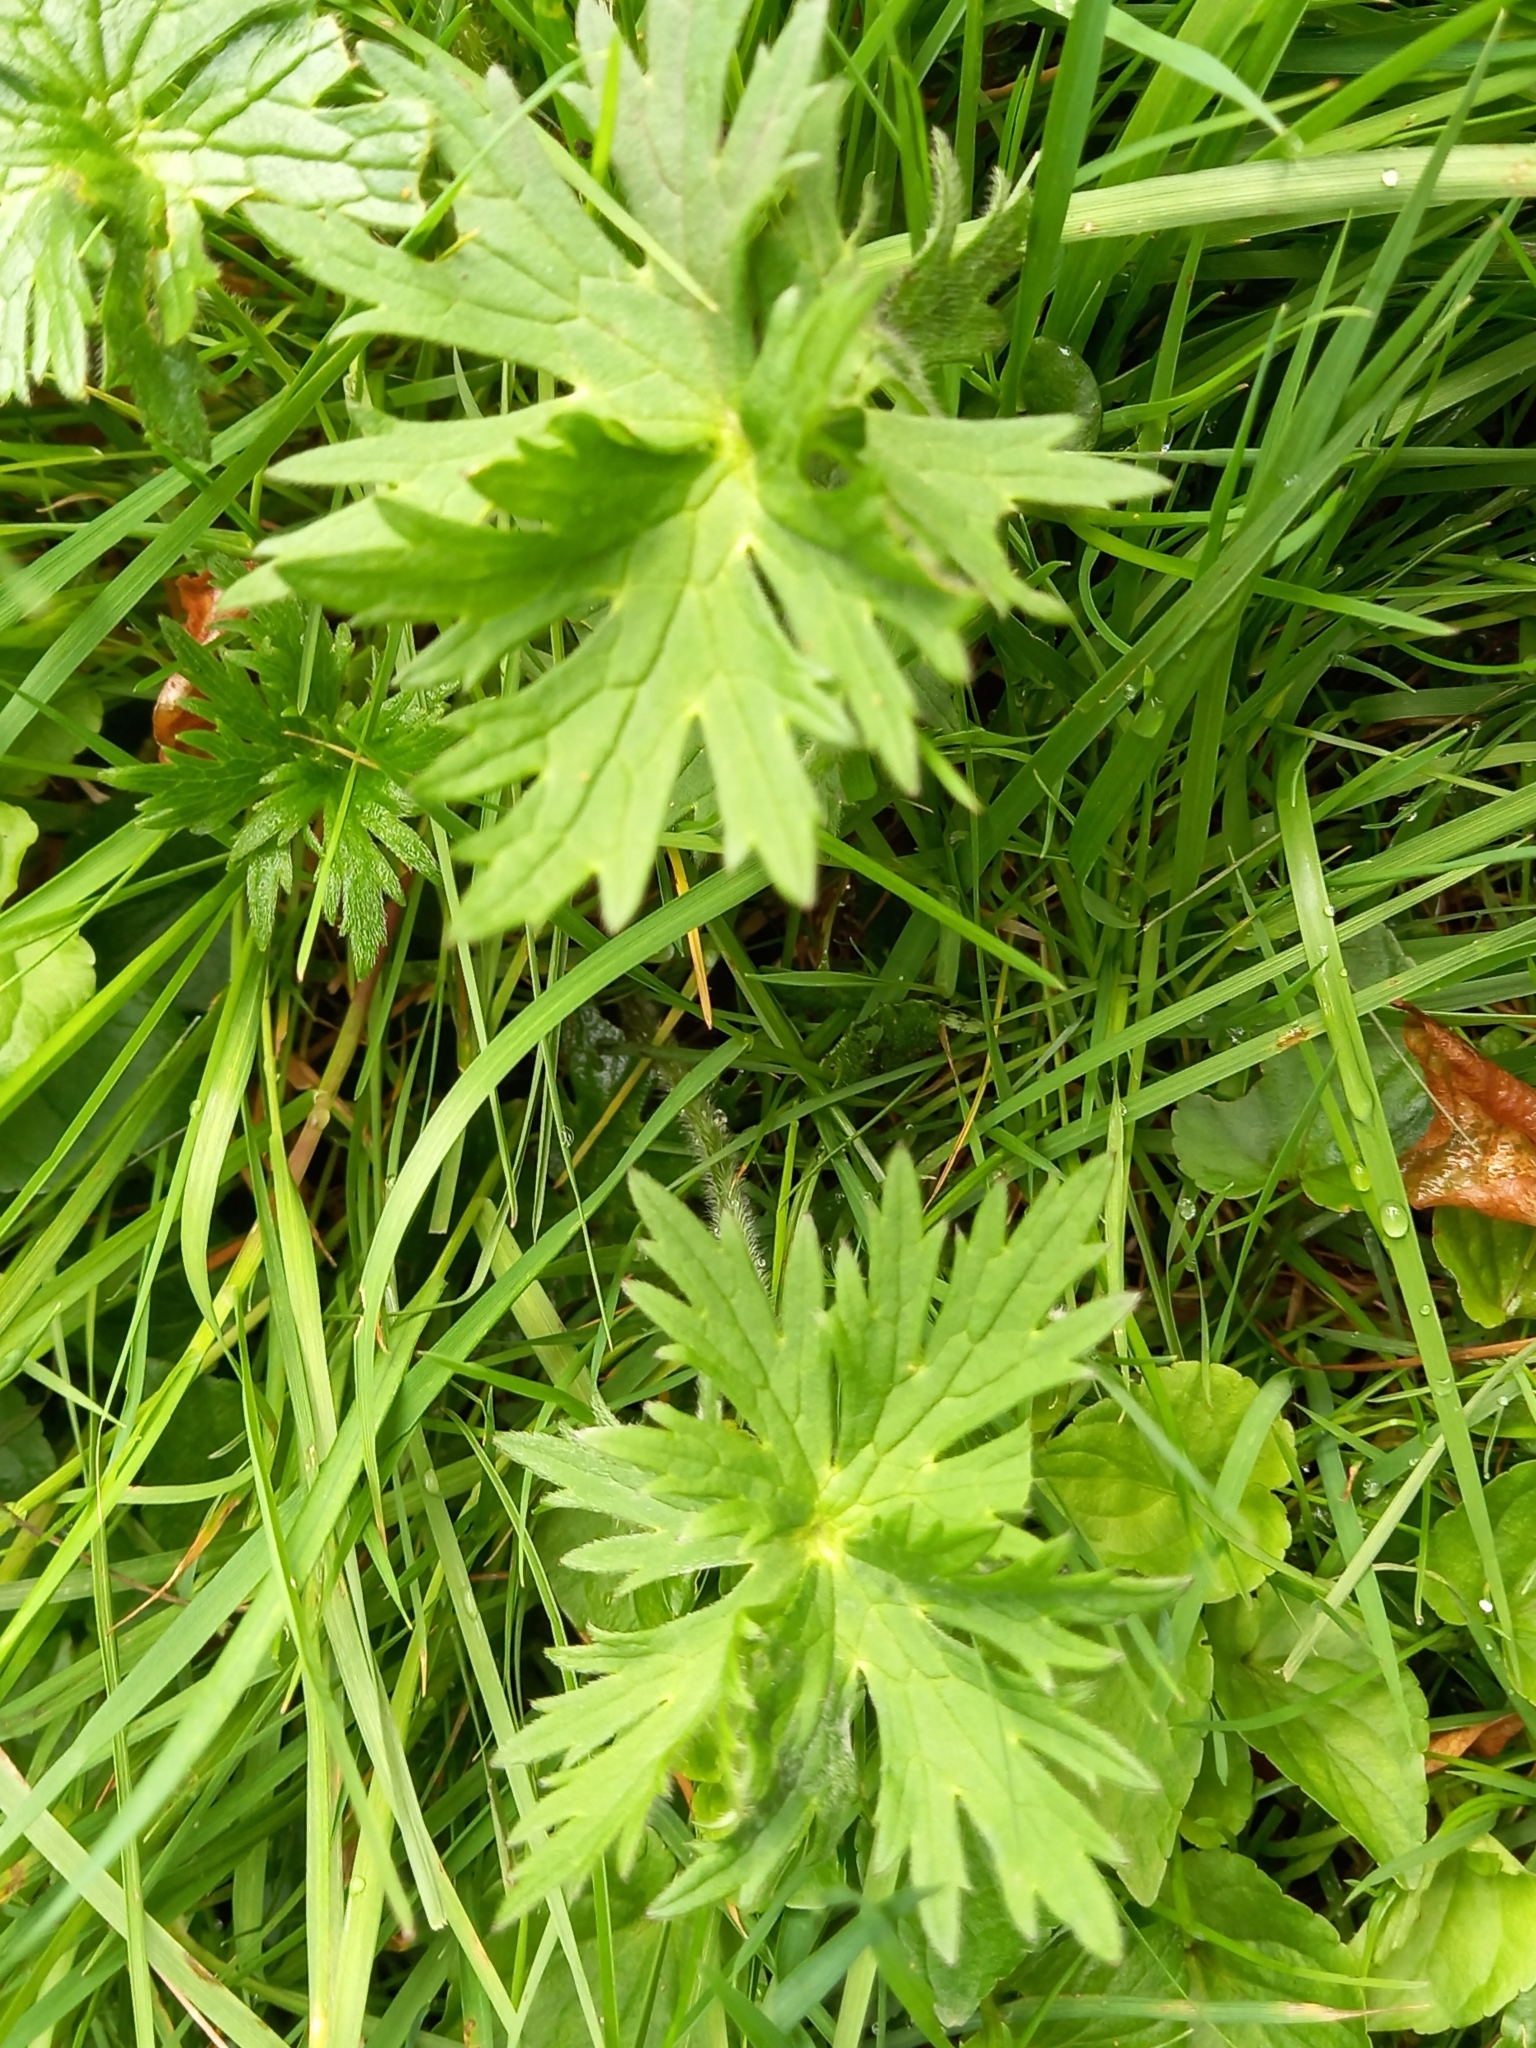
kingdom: Plantae
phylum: Tracheophyta
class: Magnoliopsida
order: Geraniales
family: Geraniaceae
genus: Geranium
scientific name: Geranium pratense
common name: Meadow crane's-bill
